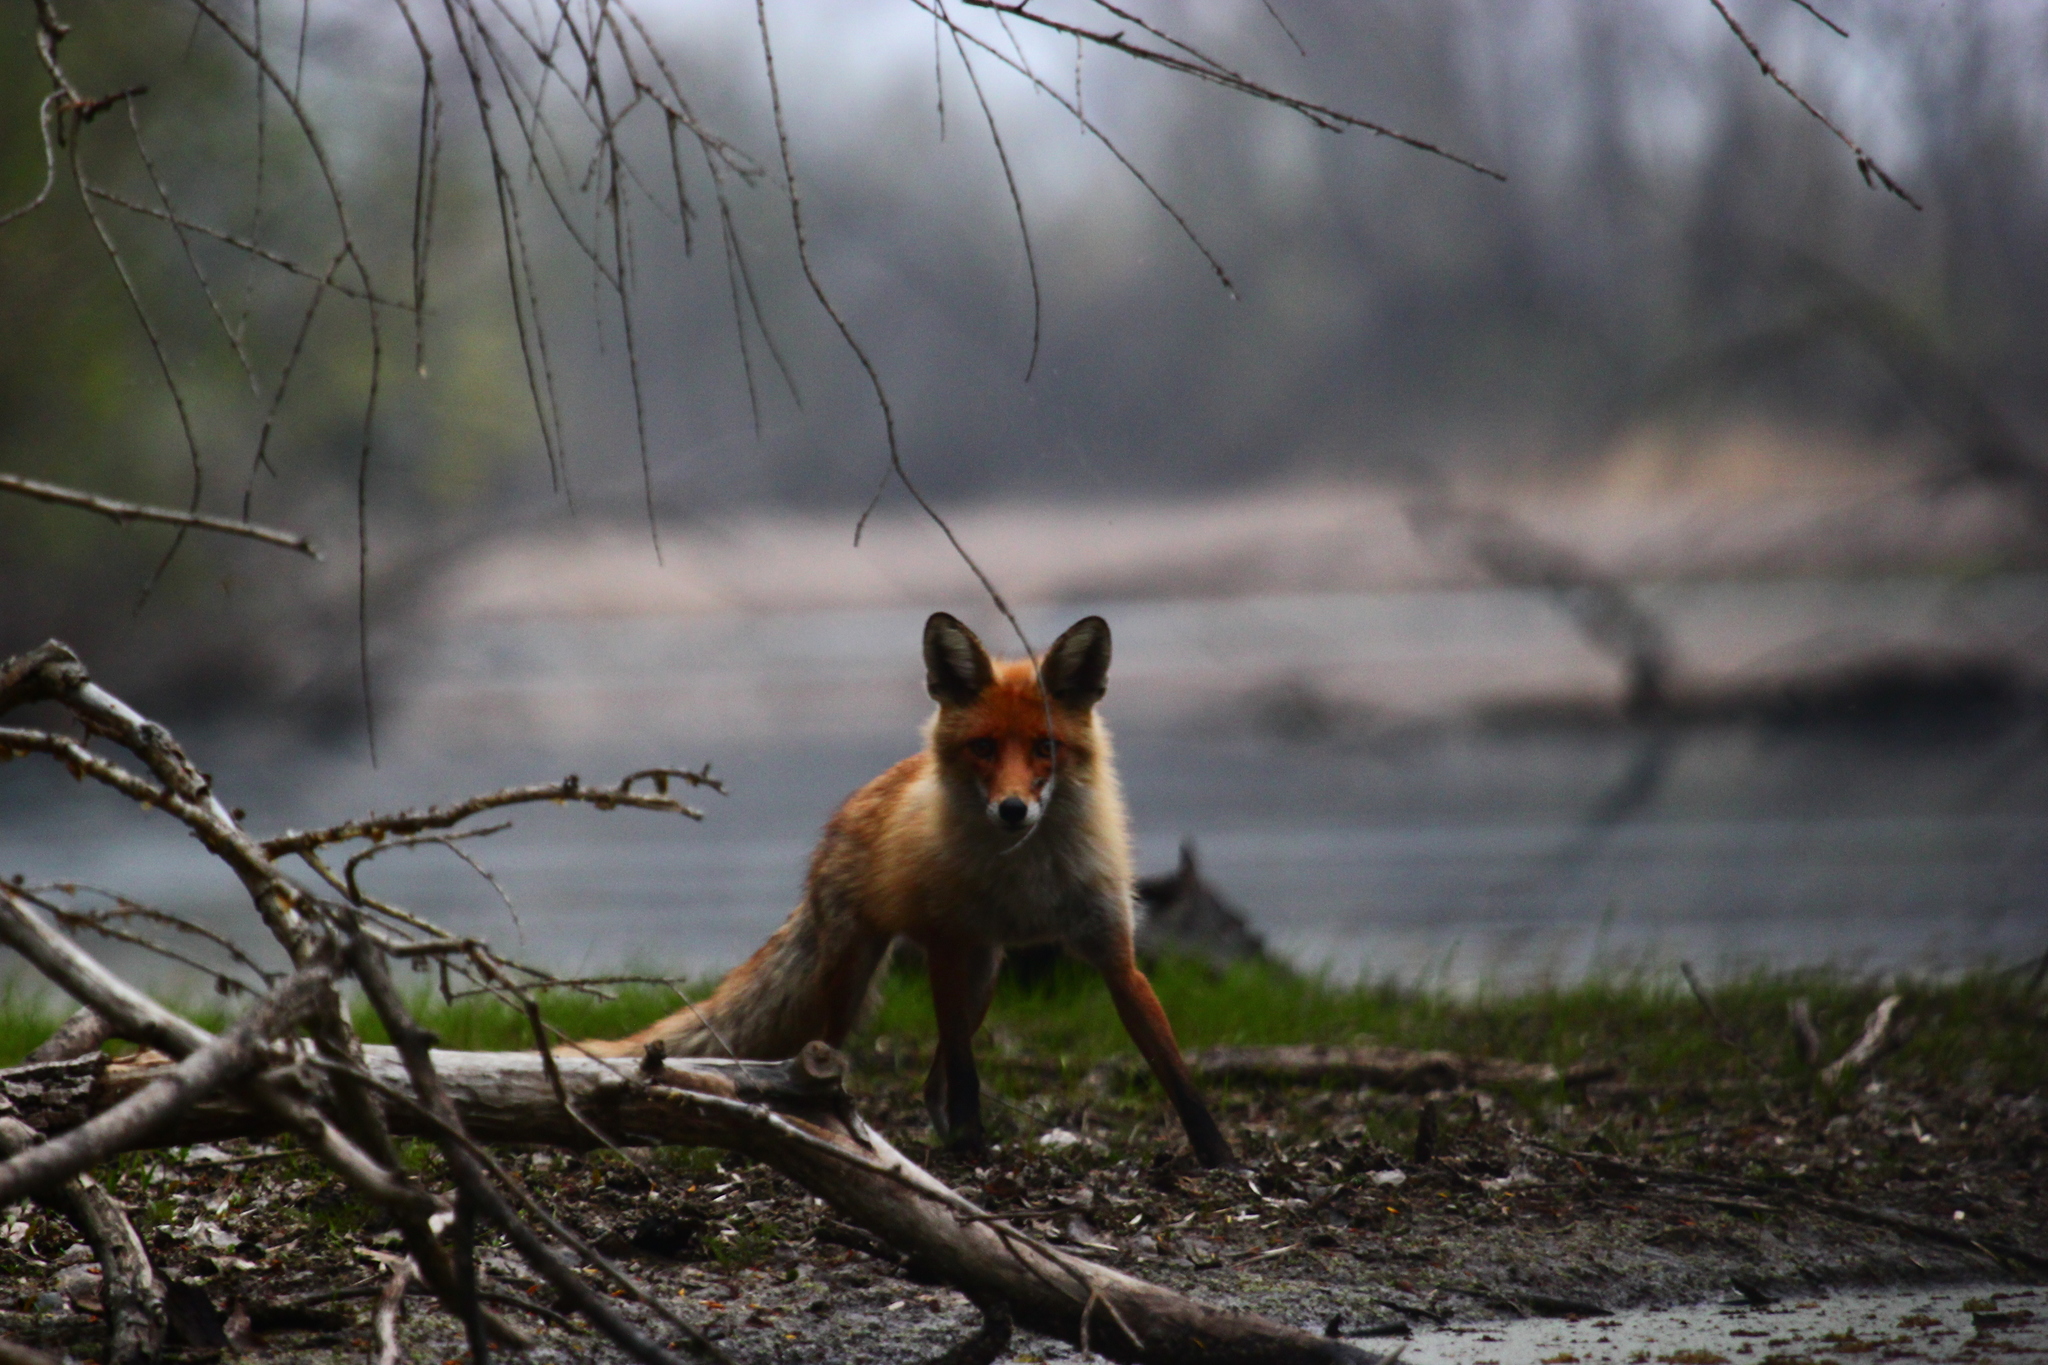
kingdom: Animalia
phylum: Chordata
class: Mammalia
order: Carnivora
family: Canidae
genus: Vulpes
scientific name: Vulpes vulpes
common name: Red fox
